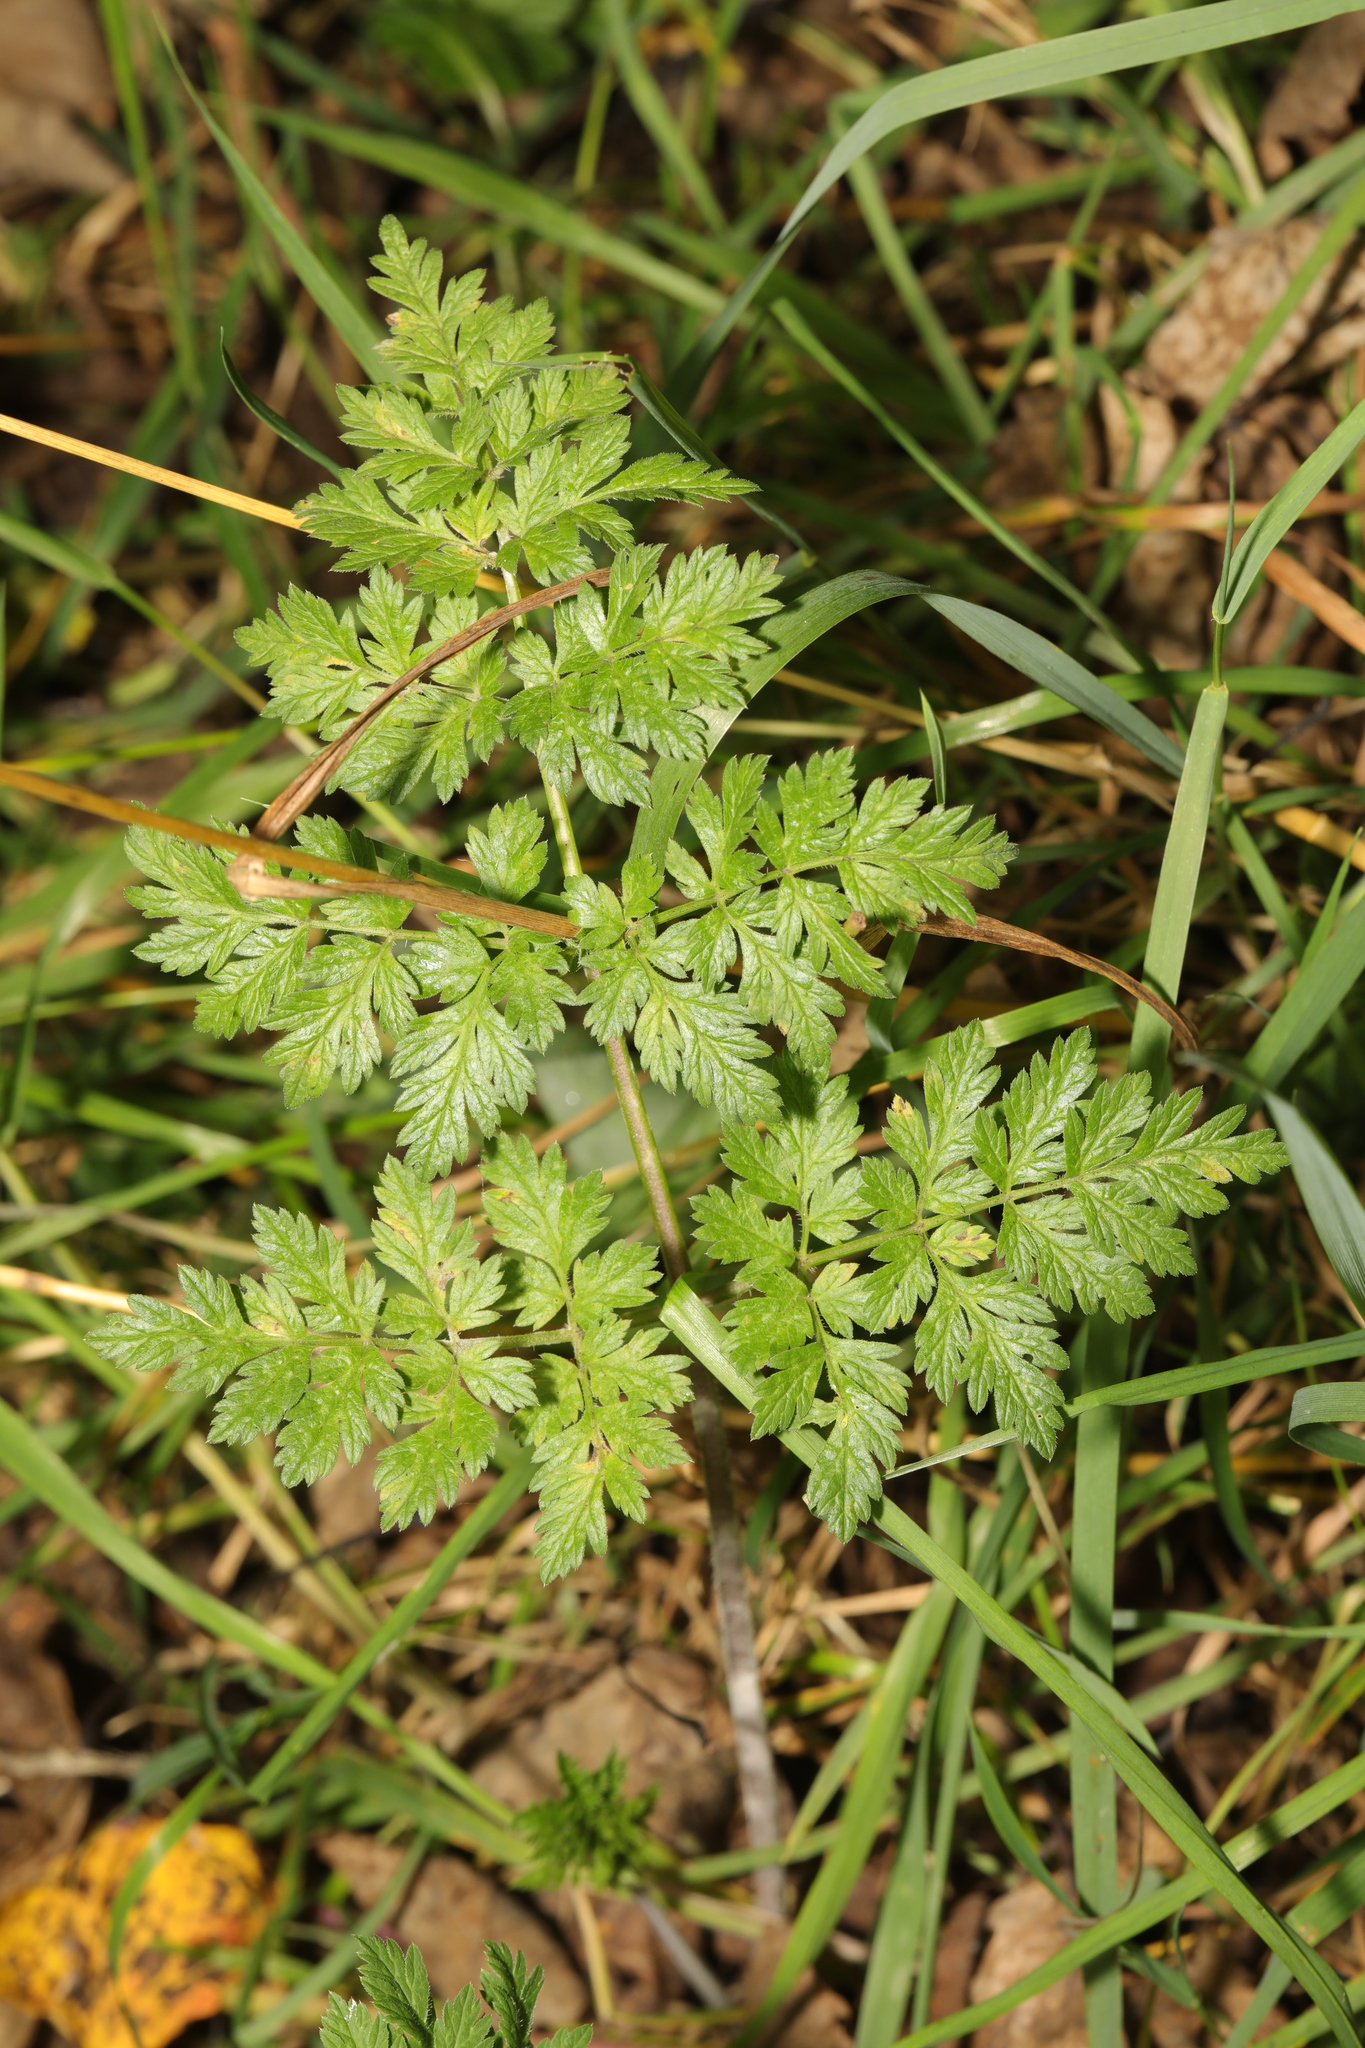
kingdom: Plantae
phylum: Tracheophyta
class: Magnoliopsida
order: Apiales
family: Apiaceae
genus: Anthriscus
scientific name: Anthriscus sylvestris
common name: Cow parsley
